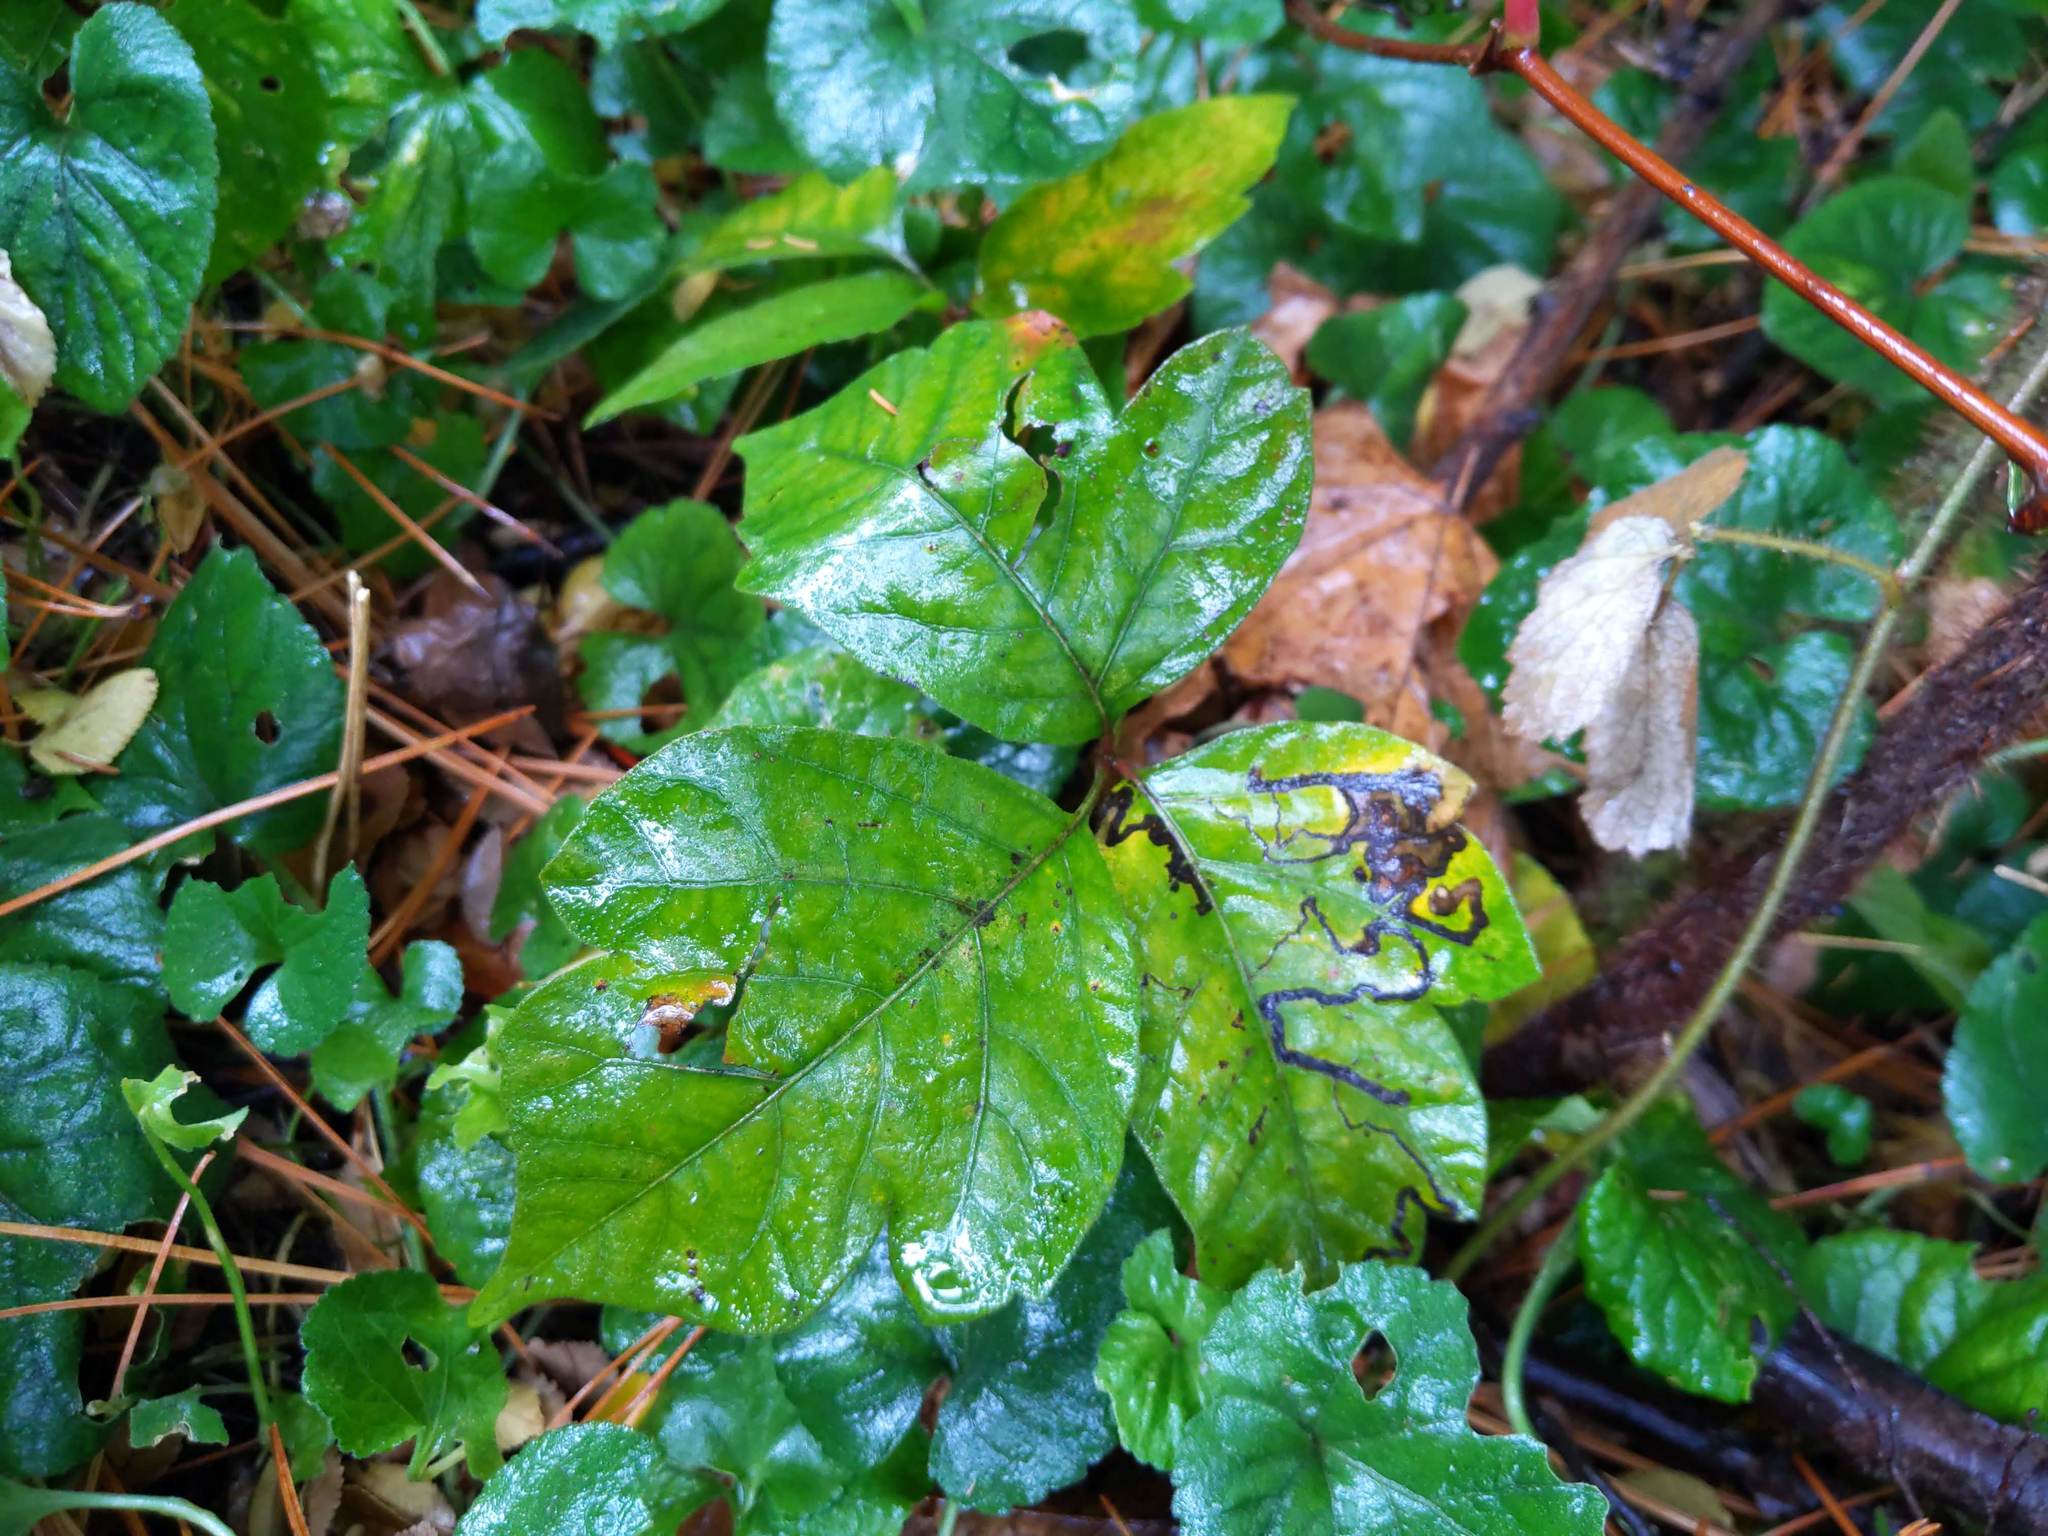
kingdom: Animalia
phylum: Arthropoda
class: Insecta
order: Lepidoptera
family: Nepticulidae
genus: Stigmella
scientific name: Stigmella rhoifoliella
